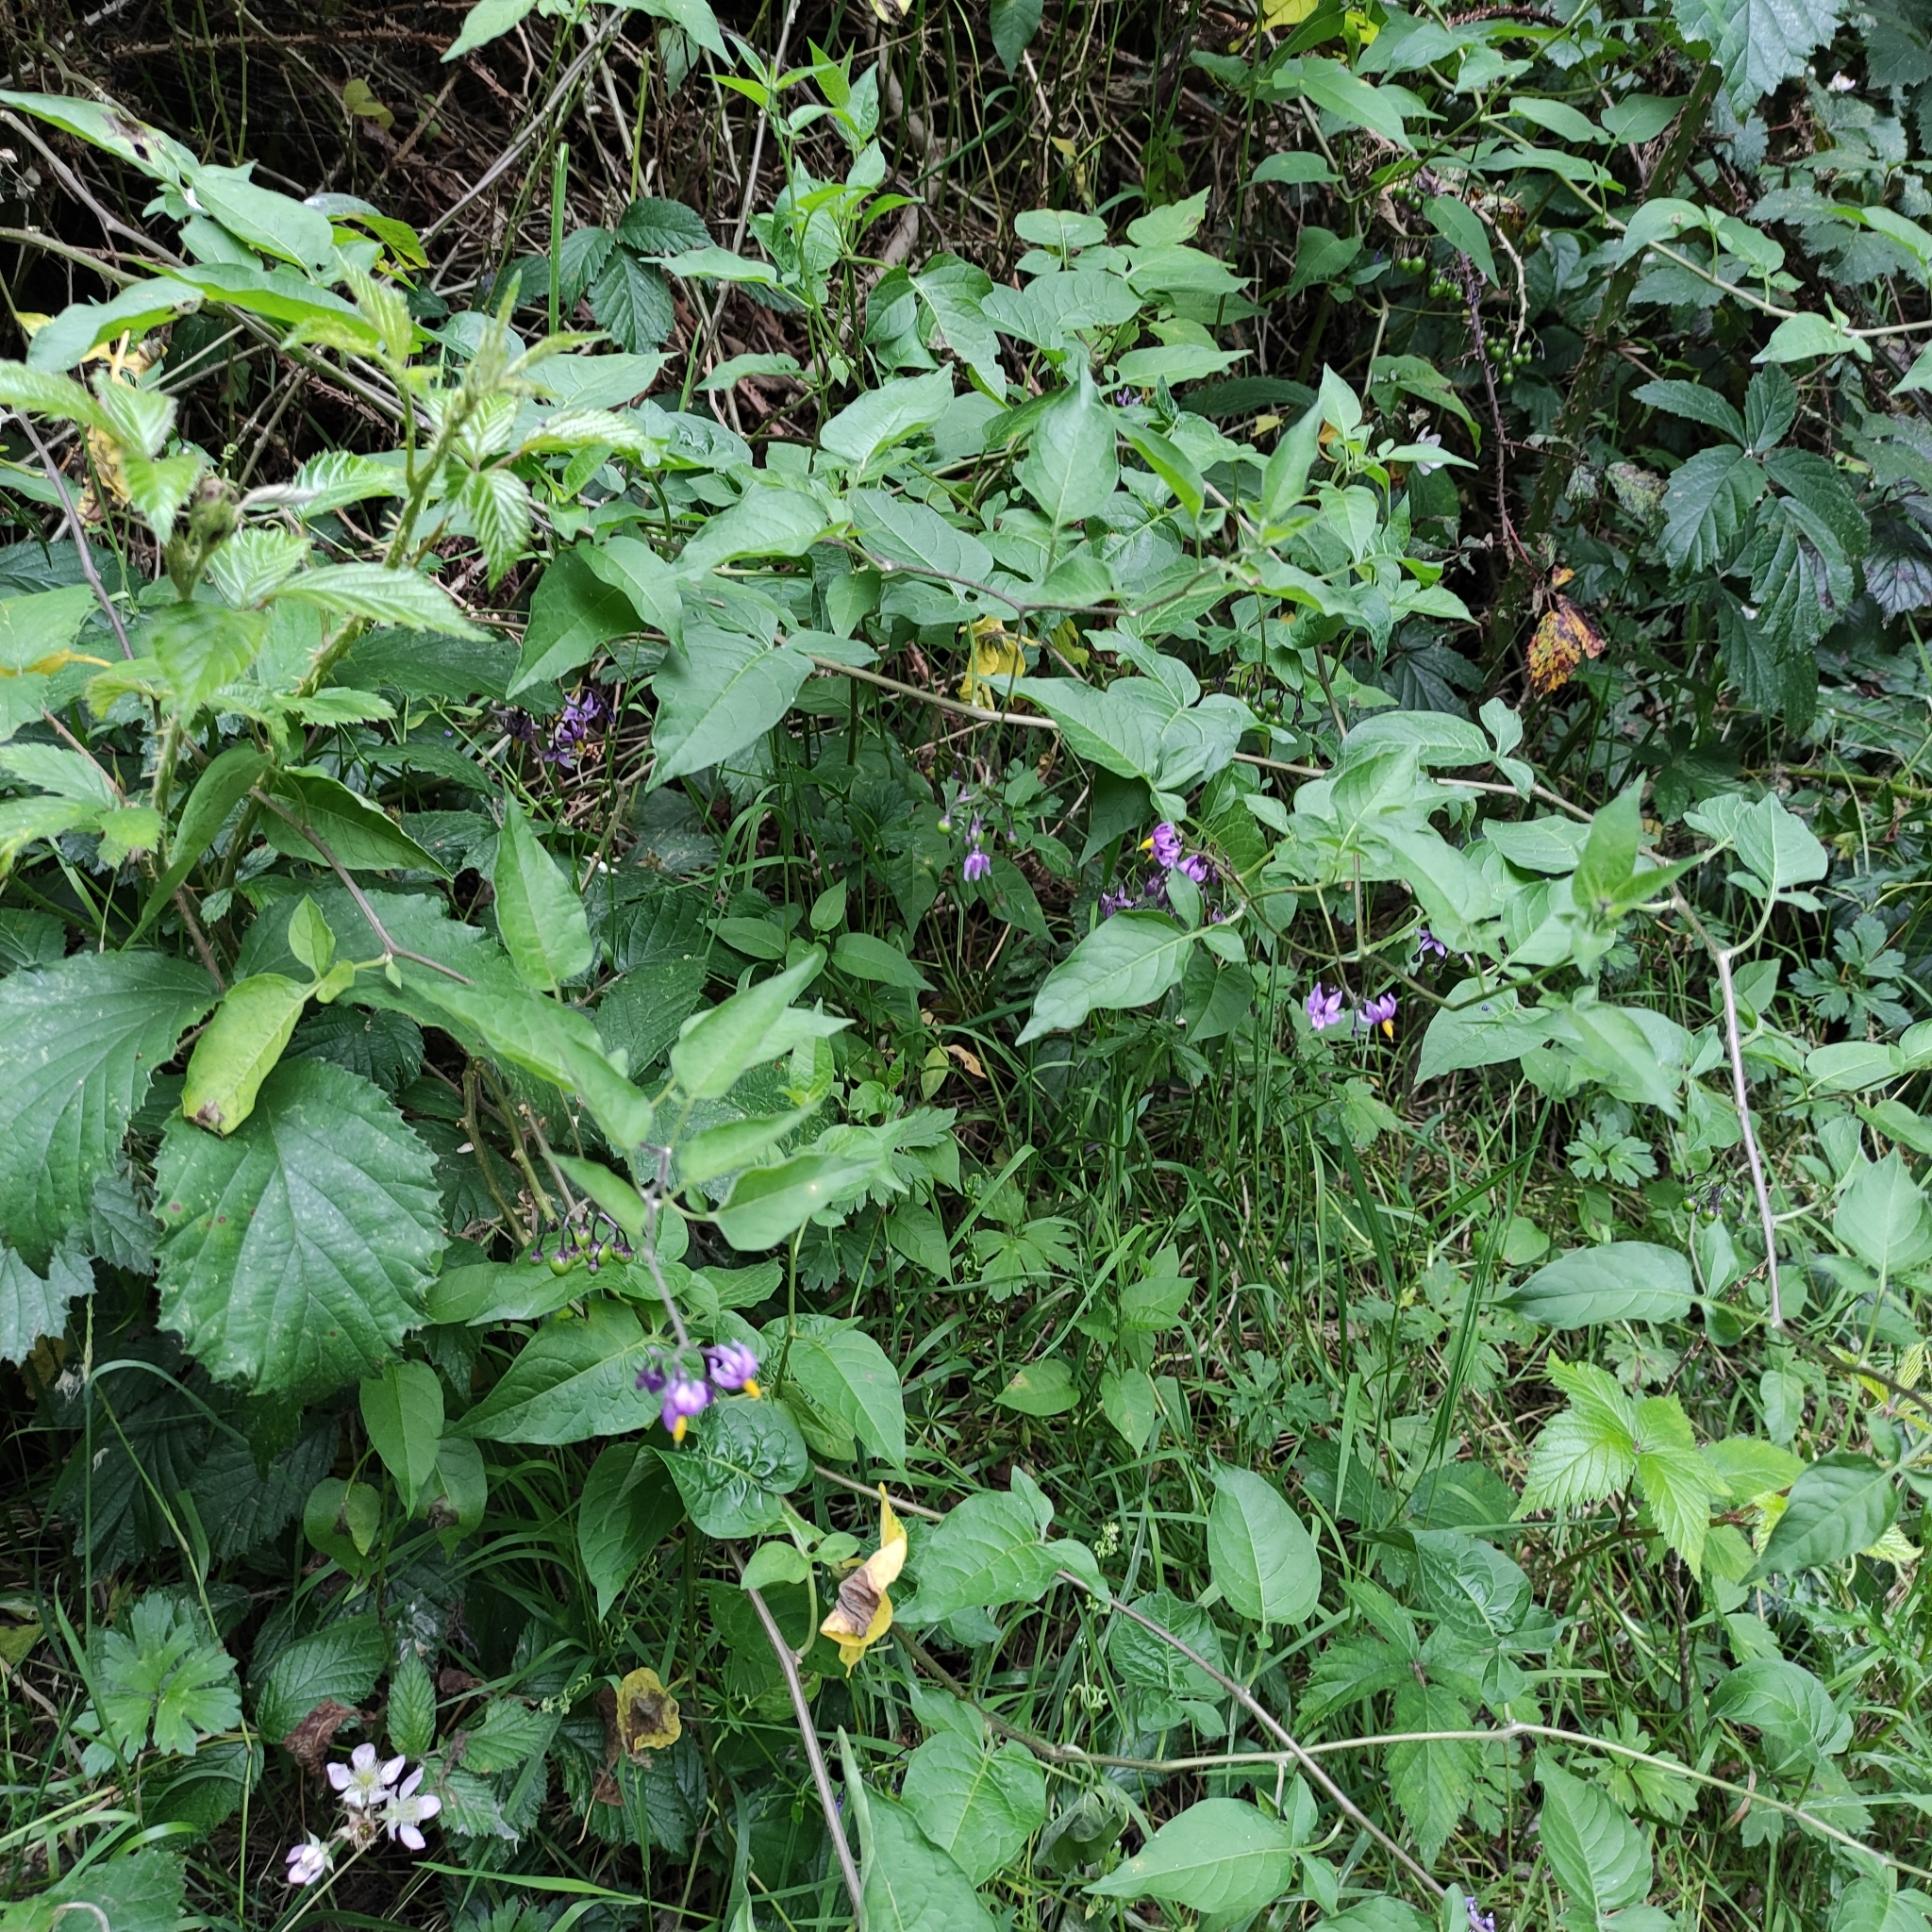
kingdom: Plantae
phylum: Tracheophyta
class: Magnoliopsida
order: Solanales
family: Solanaceae
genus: Solanum
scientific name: Solanum dulcamara
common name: Climbing nightshade
